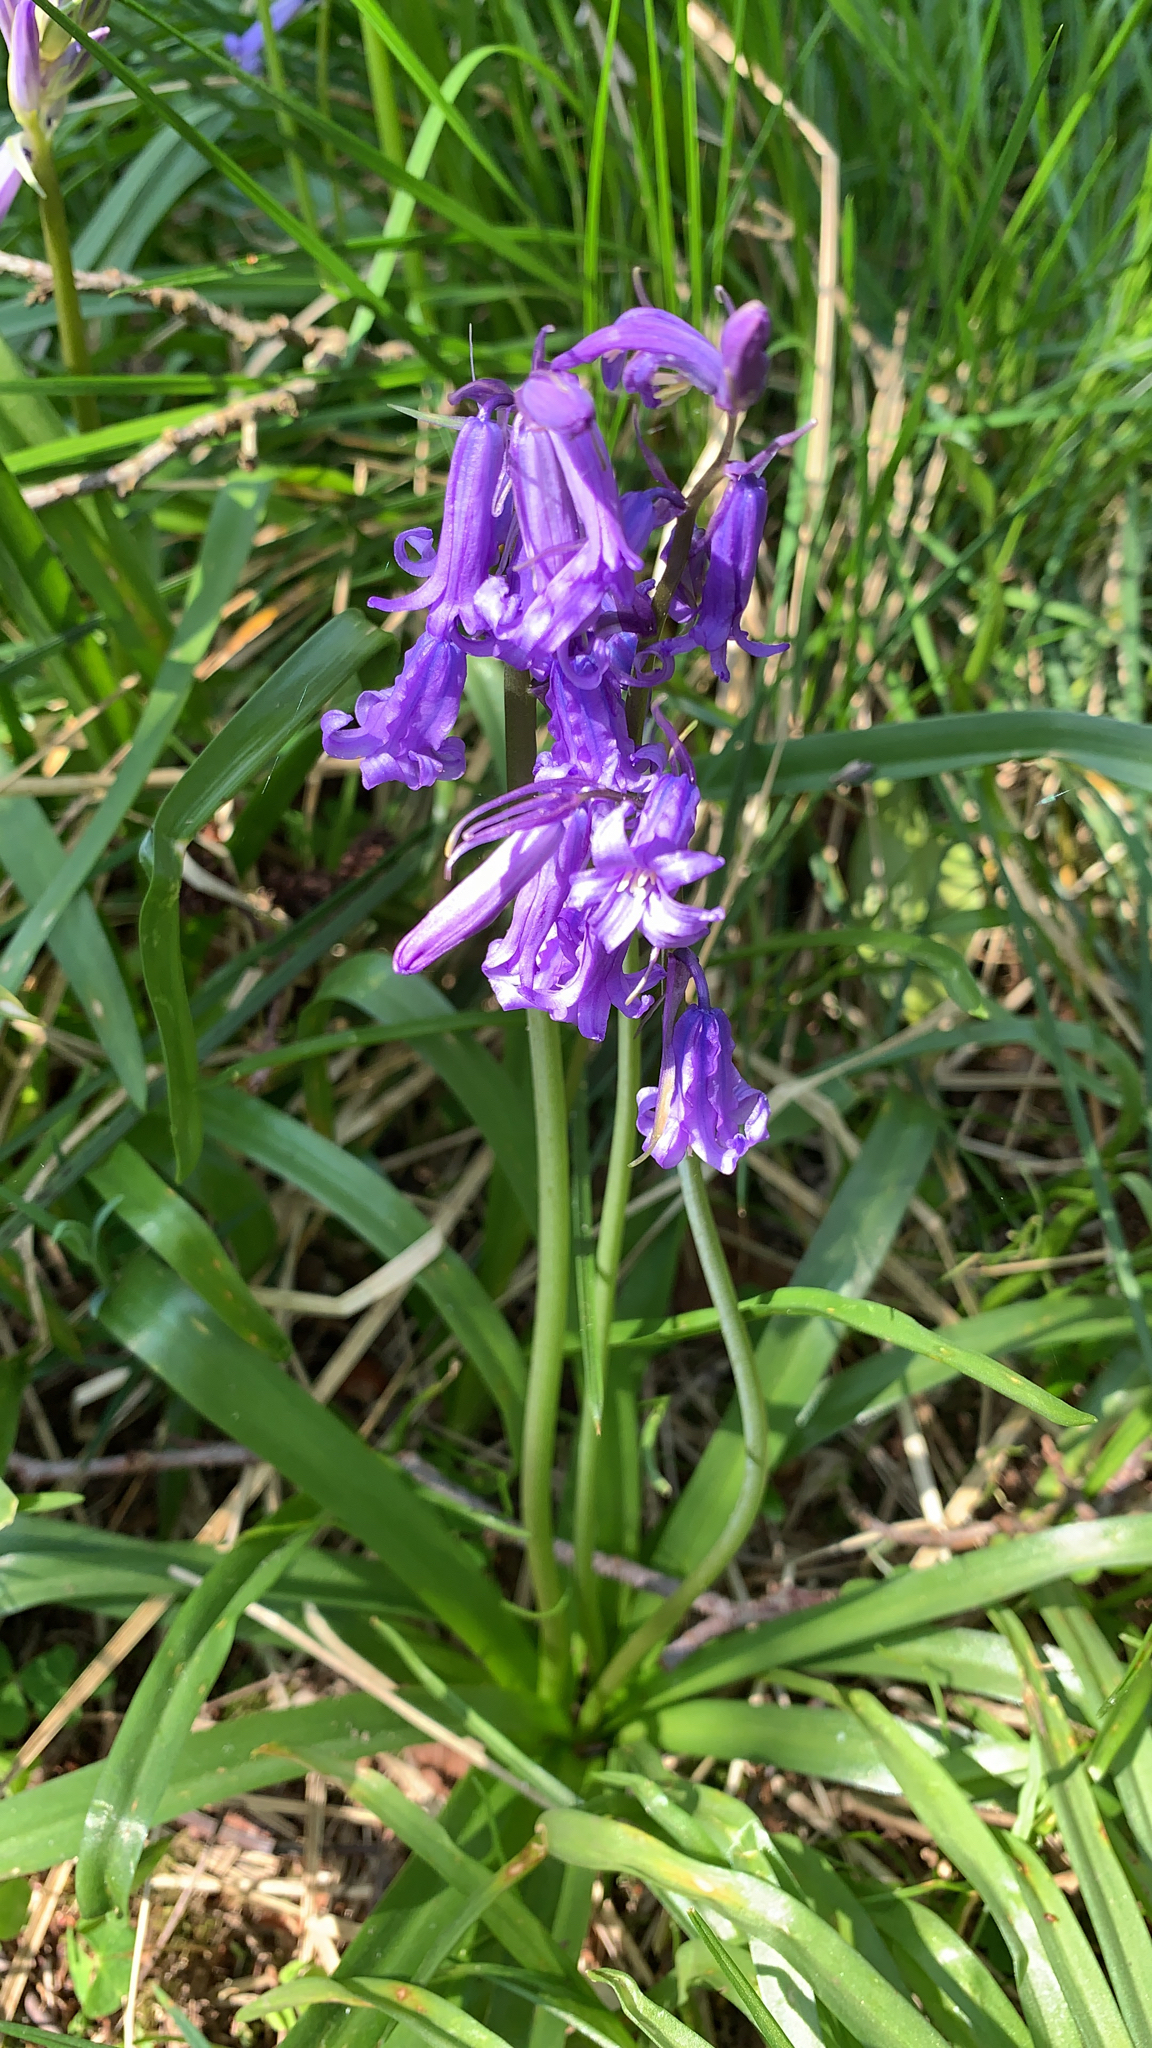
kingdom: Plantae
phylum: Tracheophyta
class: Liliopsida
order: Asparagales
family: Asparagaceae
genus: Hyacinthoides
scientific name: Hyacinthoides non-scripta
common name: Bluebell
